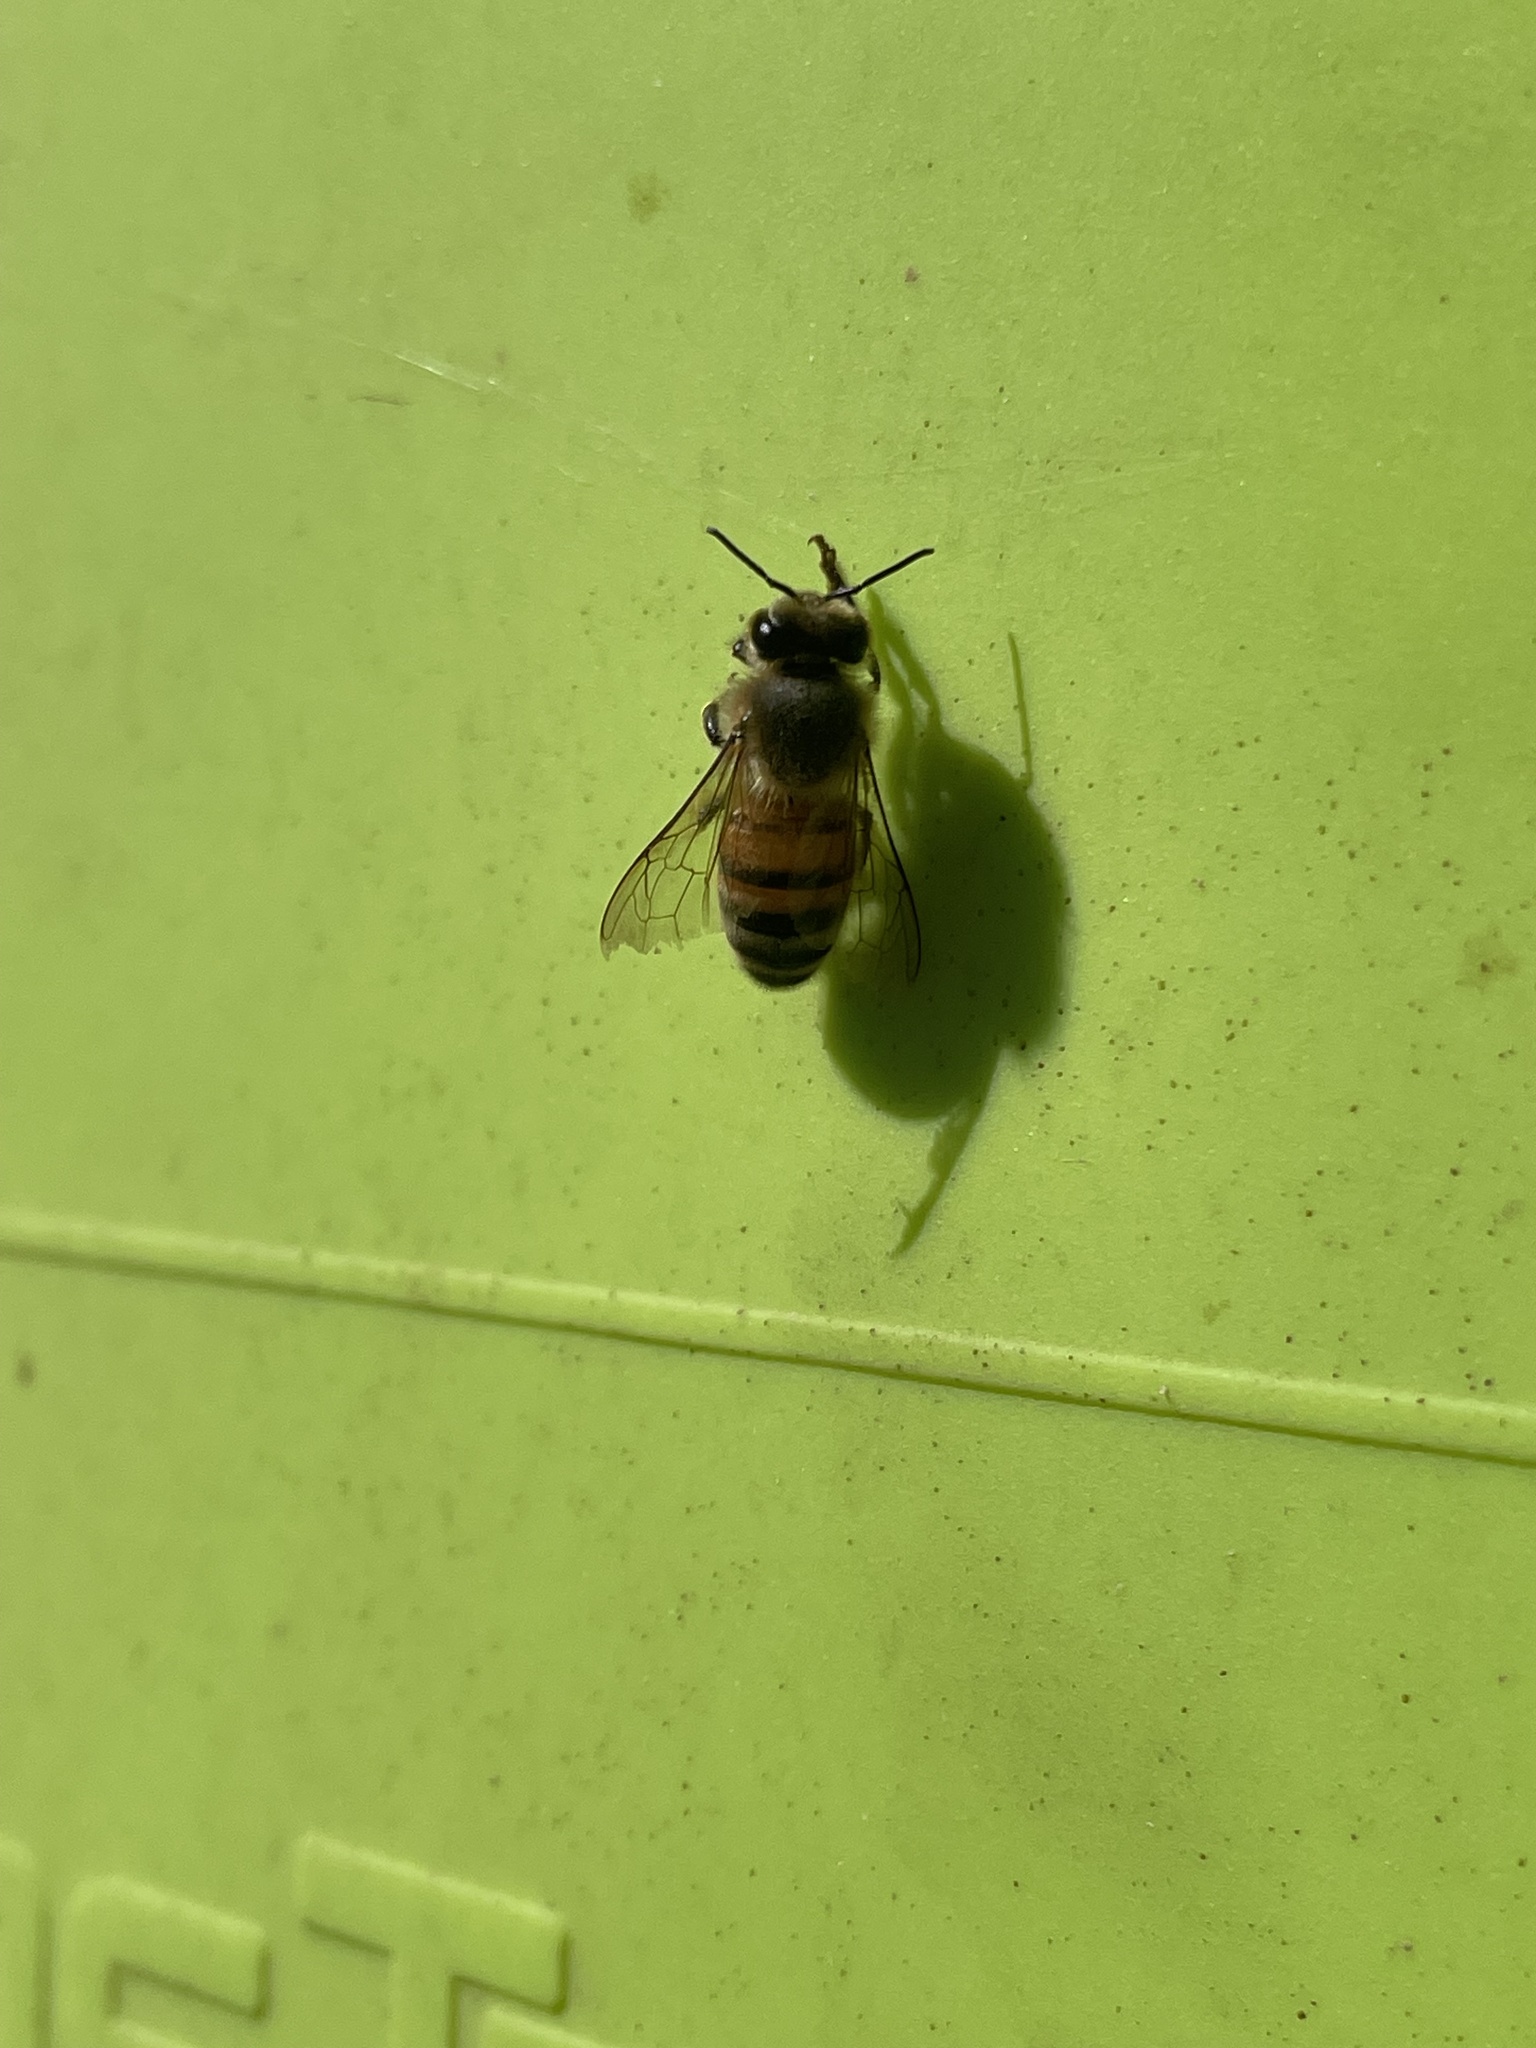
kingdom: Animalia
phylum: Arthropoda
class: Insecta
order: Hymenoptera
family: Apidae
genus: Apis
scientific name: Apis mellifera
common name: Honey bee
